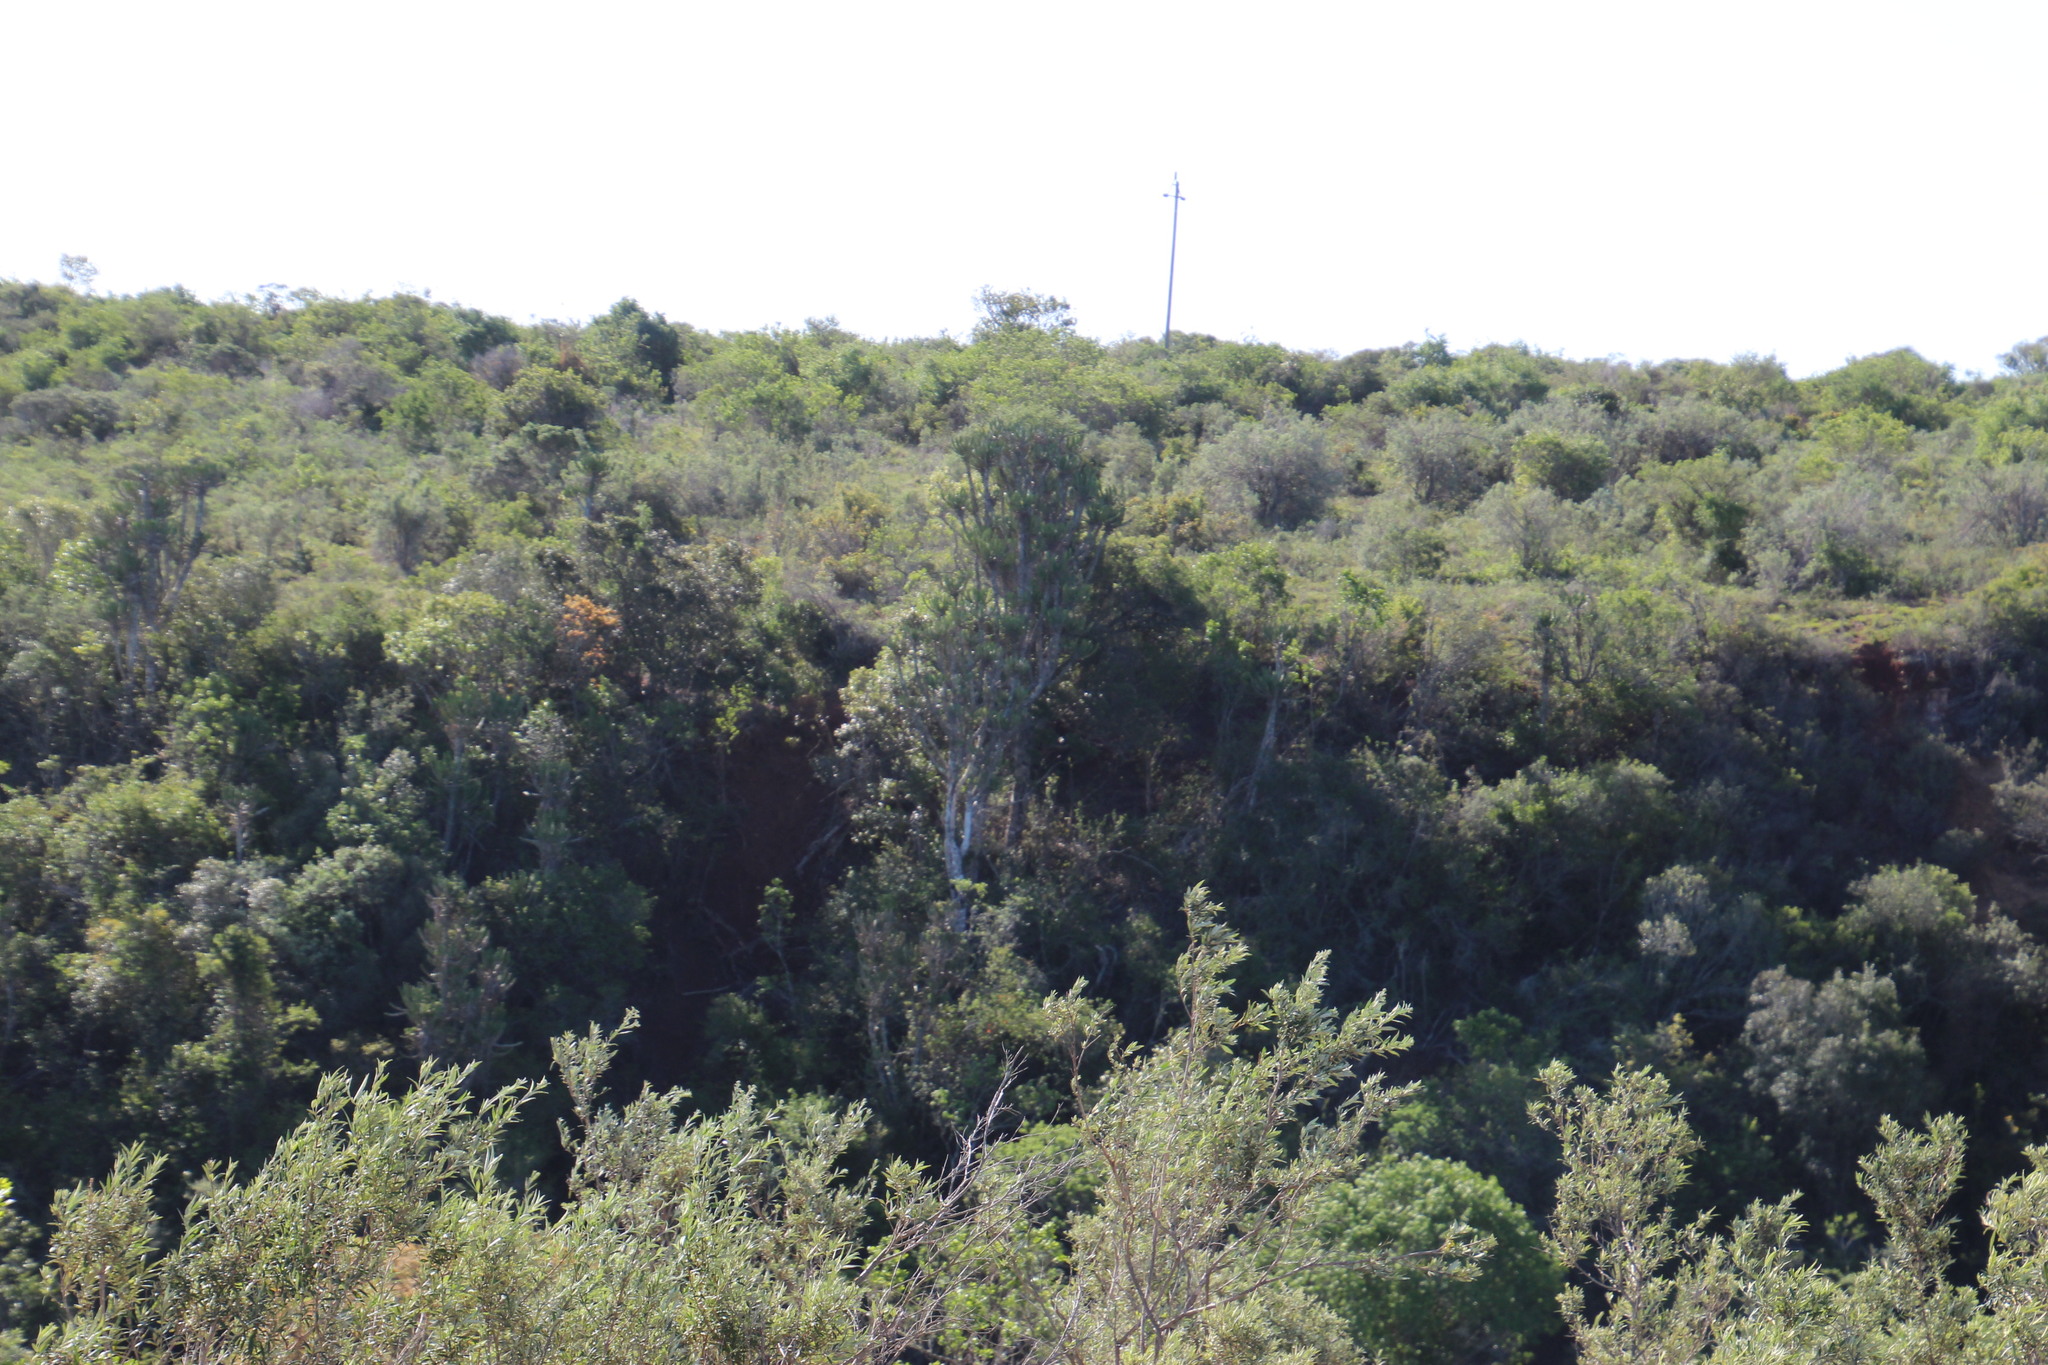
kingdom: Plantae
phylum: Tracheophyta
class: Magnoliopsida
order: Malpighiales
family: Euphorbiaceae
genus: Euphorbia
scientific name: Euphorbia triangularis
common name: Chandelier tree
